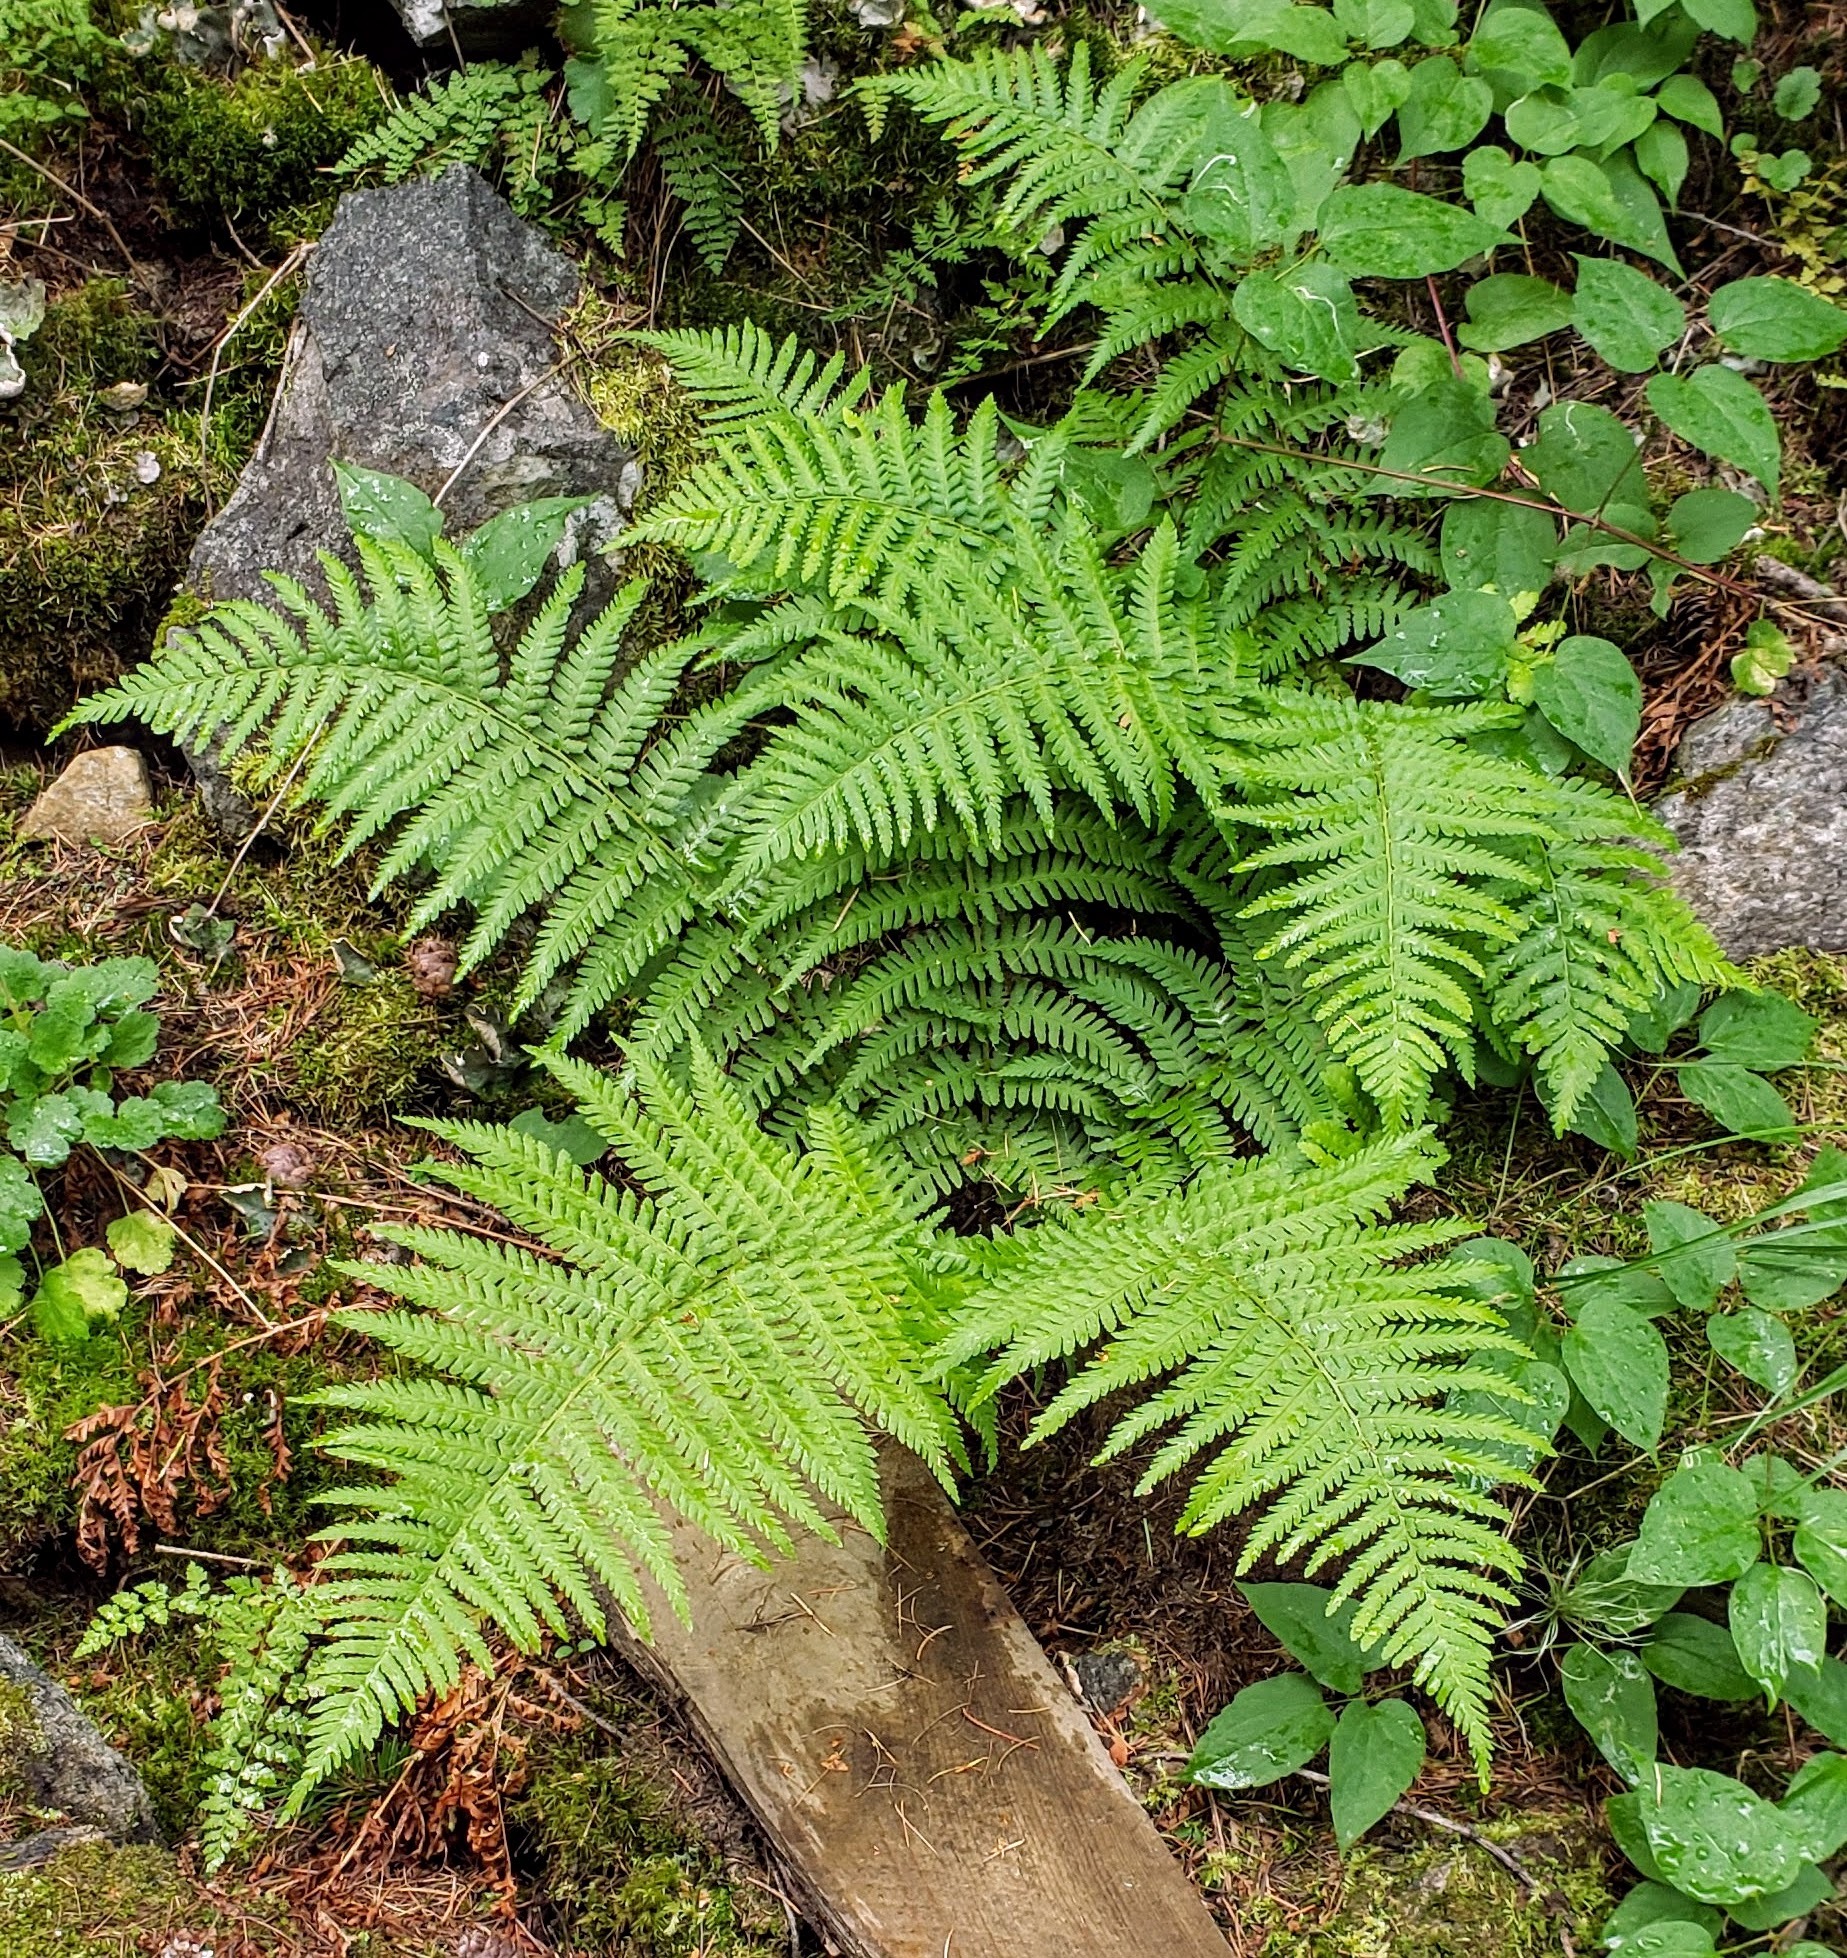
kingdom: Plantae
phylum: Tracheophyta
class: Polypodiopsida
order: Polypodiales
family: Dryopteridaceae
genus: Dryopteris
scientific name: Dryopteris filix-mas
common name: Male fern
